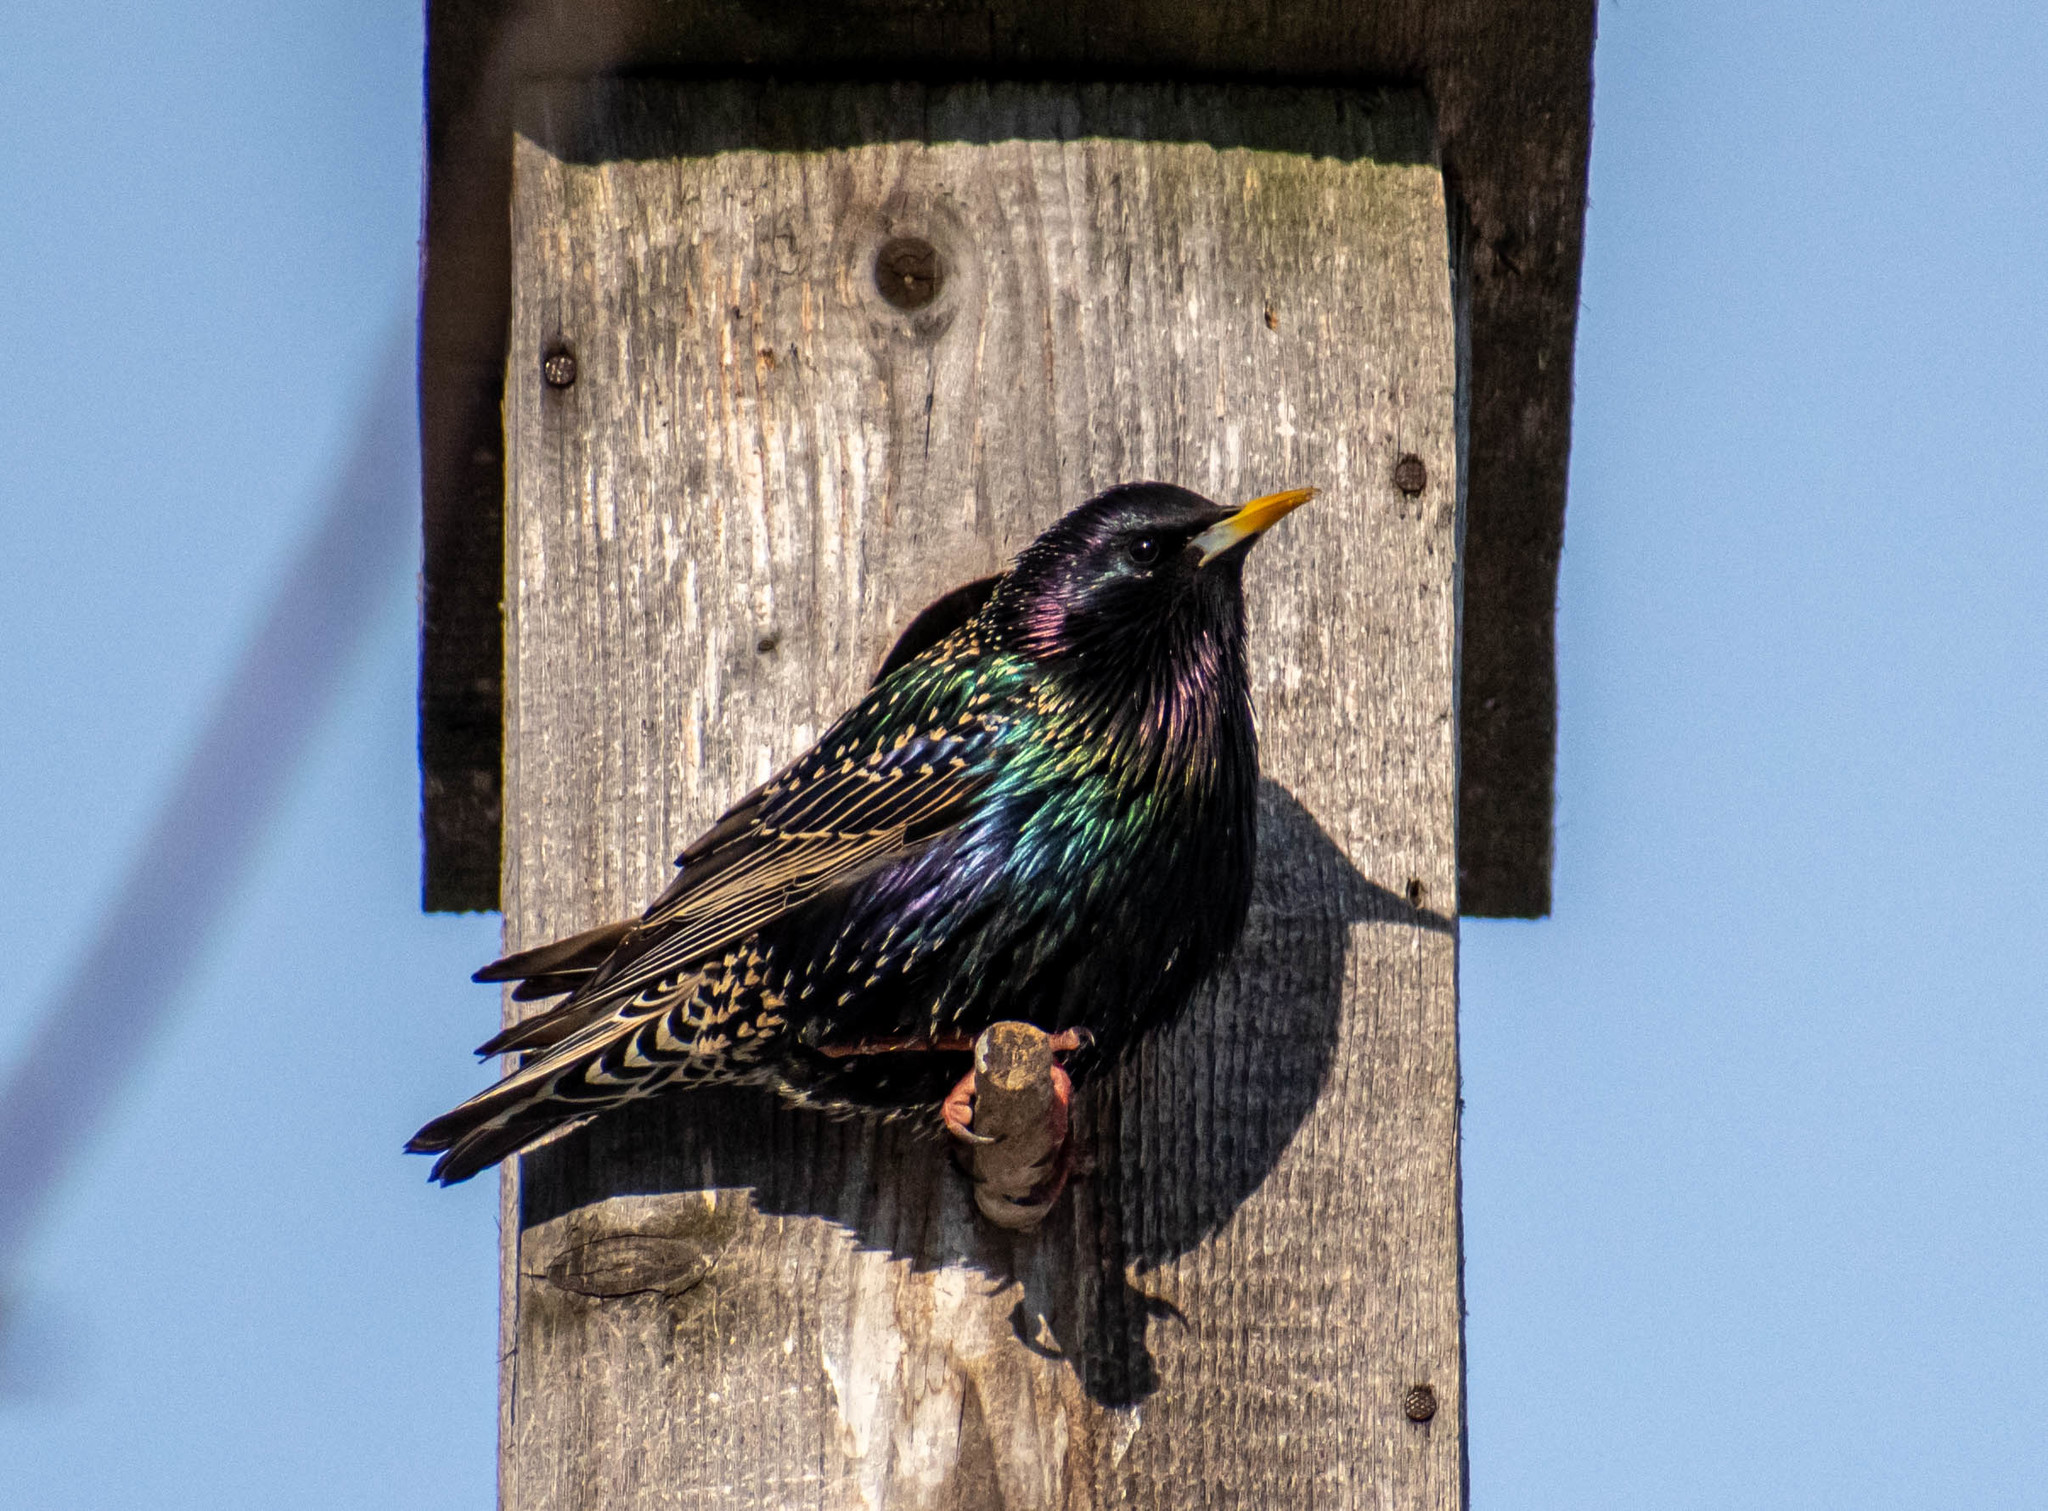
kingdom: Animalia
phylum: Chordata
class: Aves
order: Passeriformes
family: Sturnidae
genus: Sturnus
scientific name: Sturnus vulgaris
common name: Common starling
